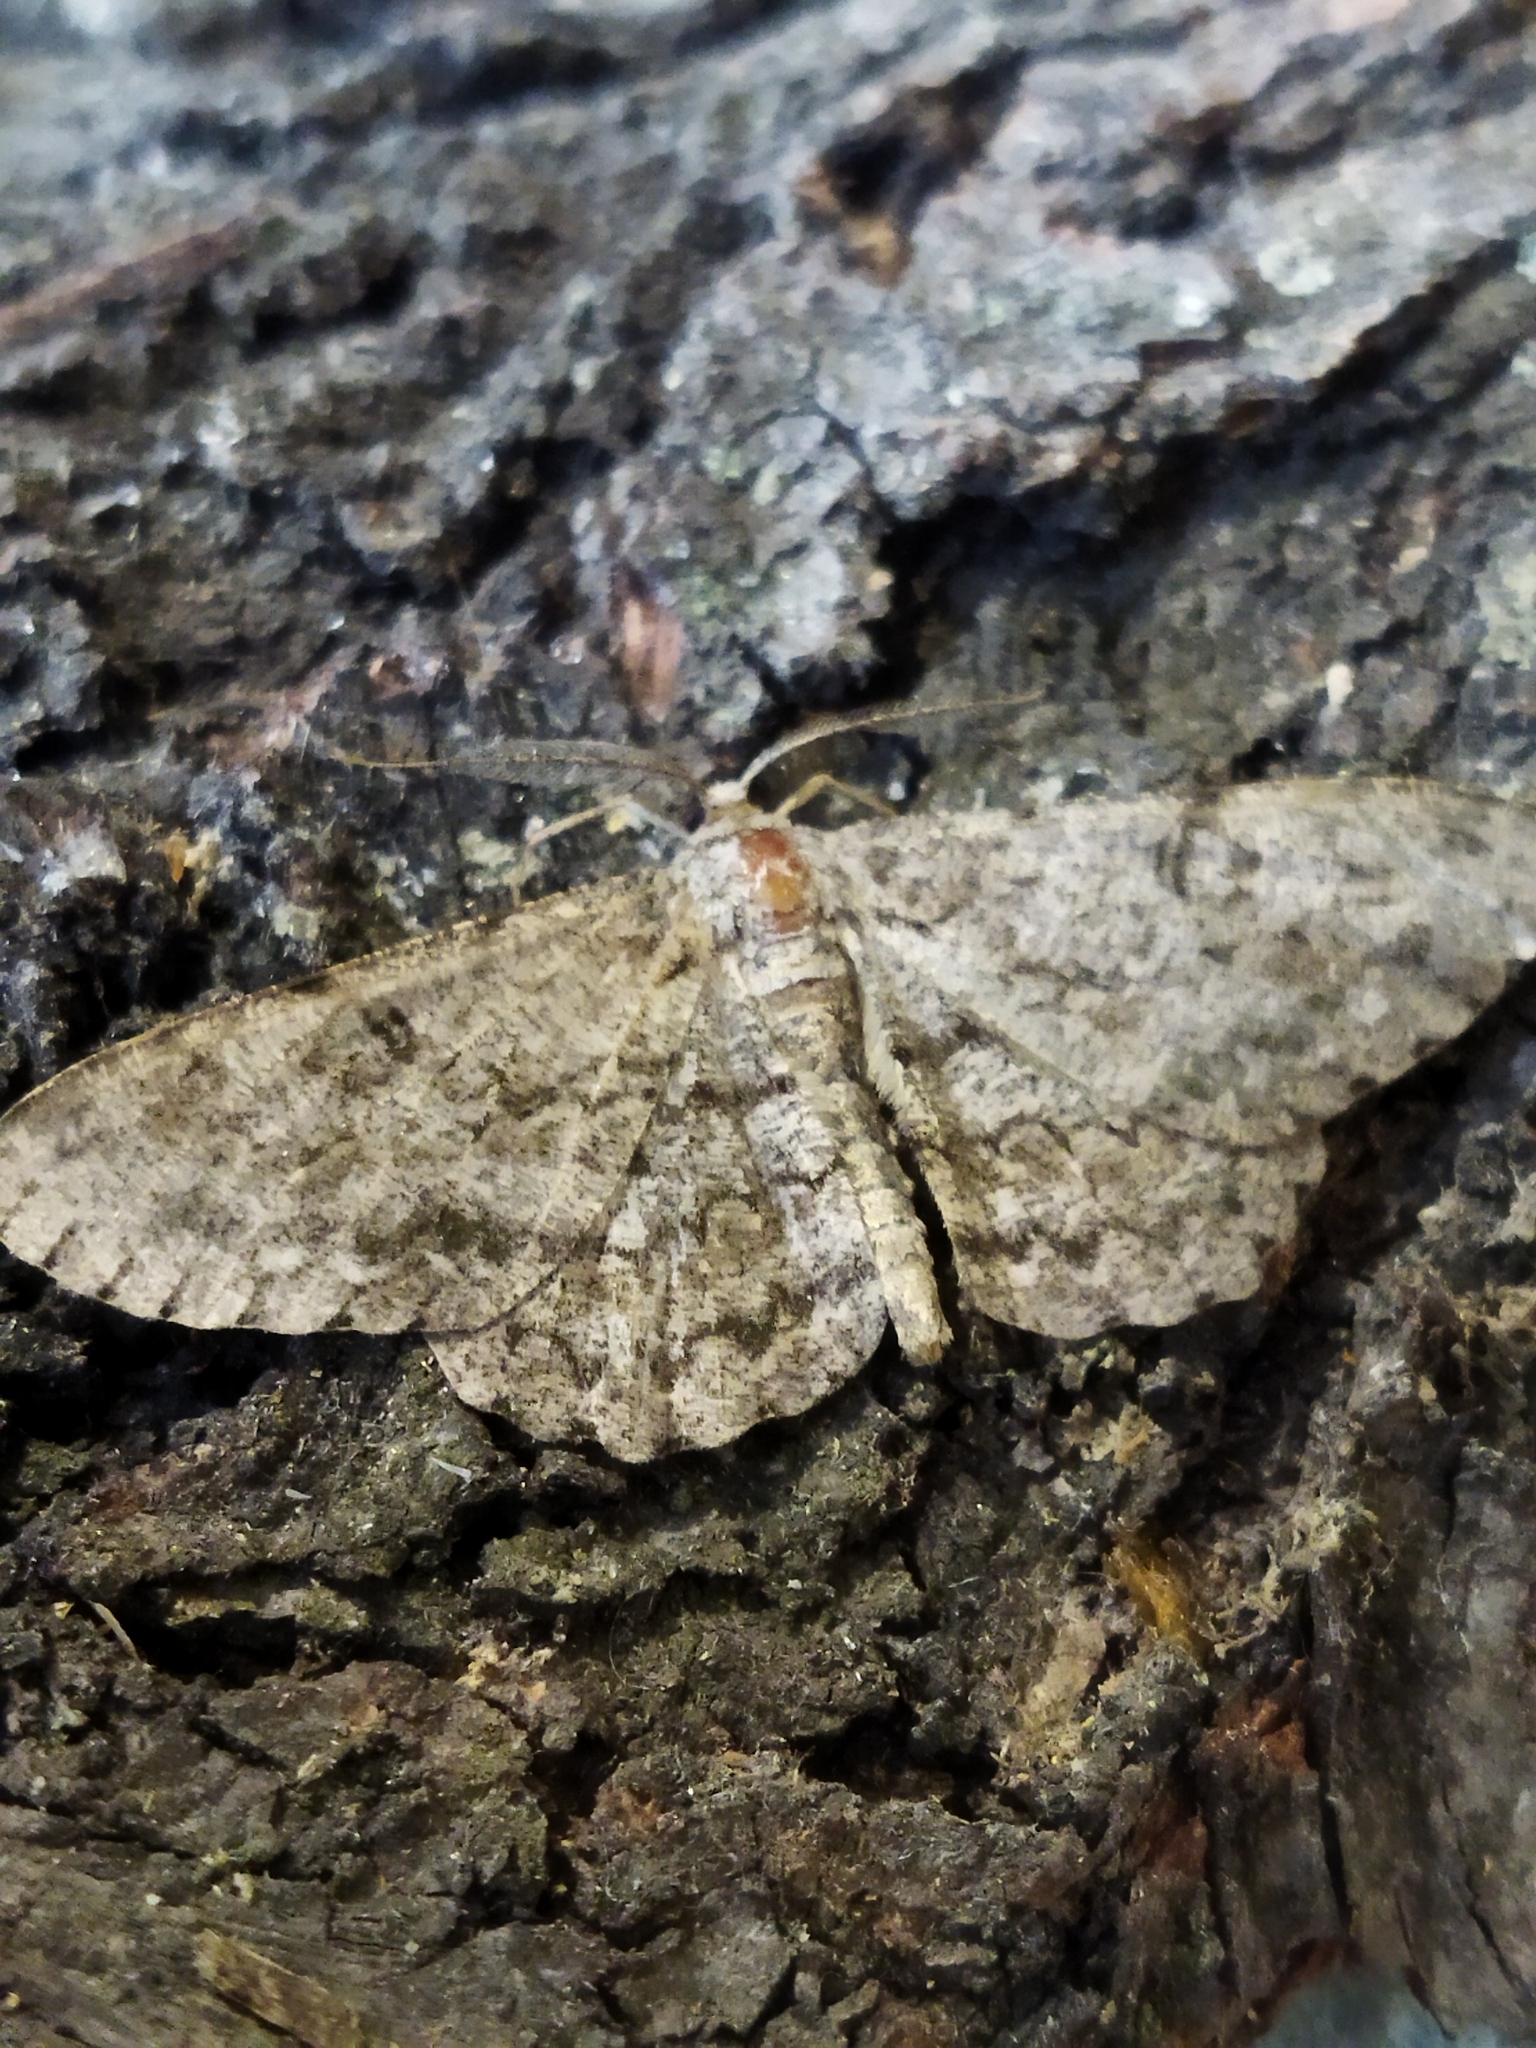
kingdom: Animalia
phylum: Arthropoda
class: Insecta
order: Lepidoptera
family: Geometridae
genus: Hypomecis
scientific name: Hypomecis punctinalis
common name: Pale oak beauty
